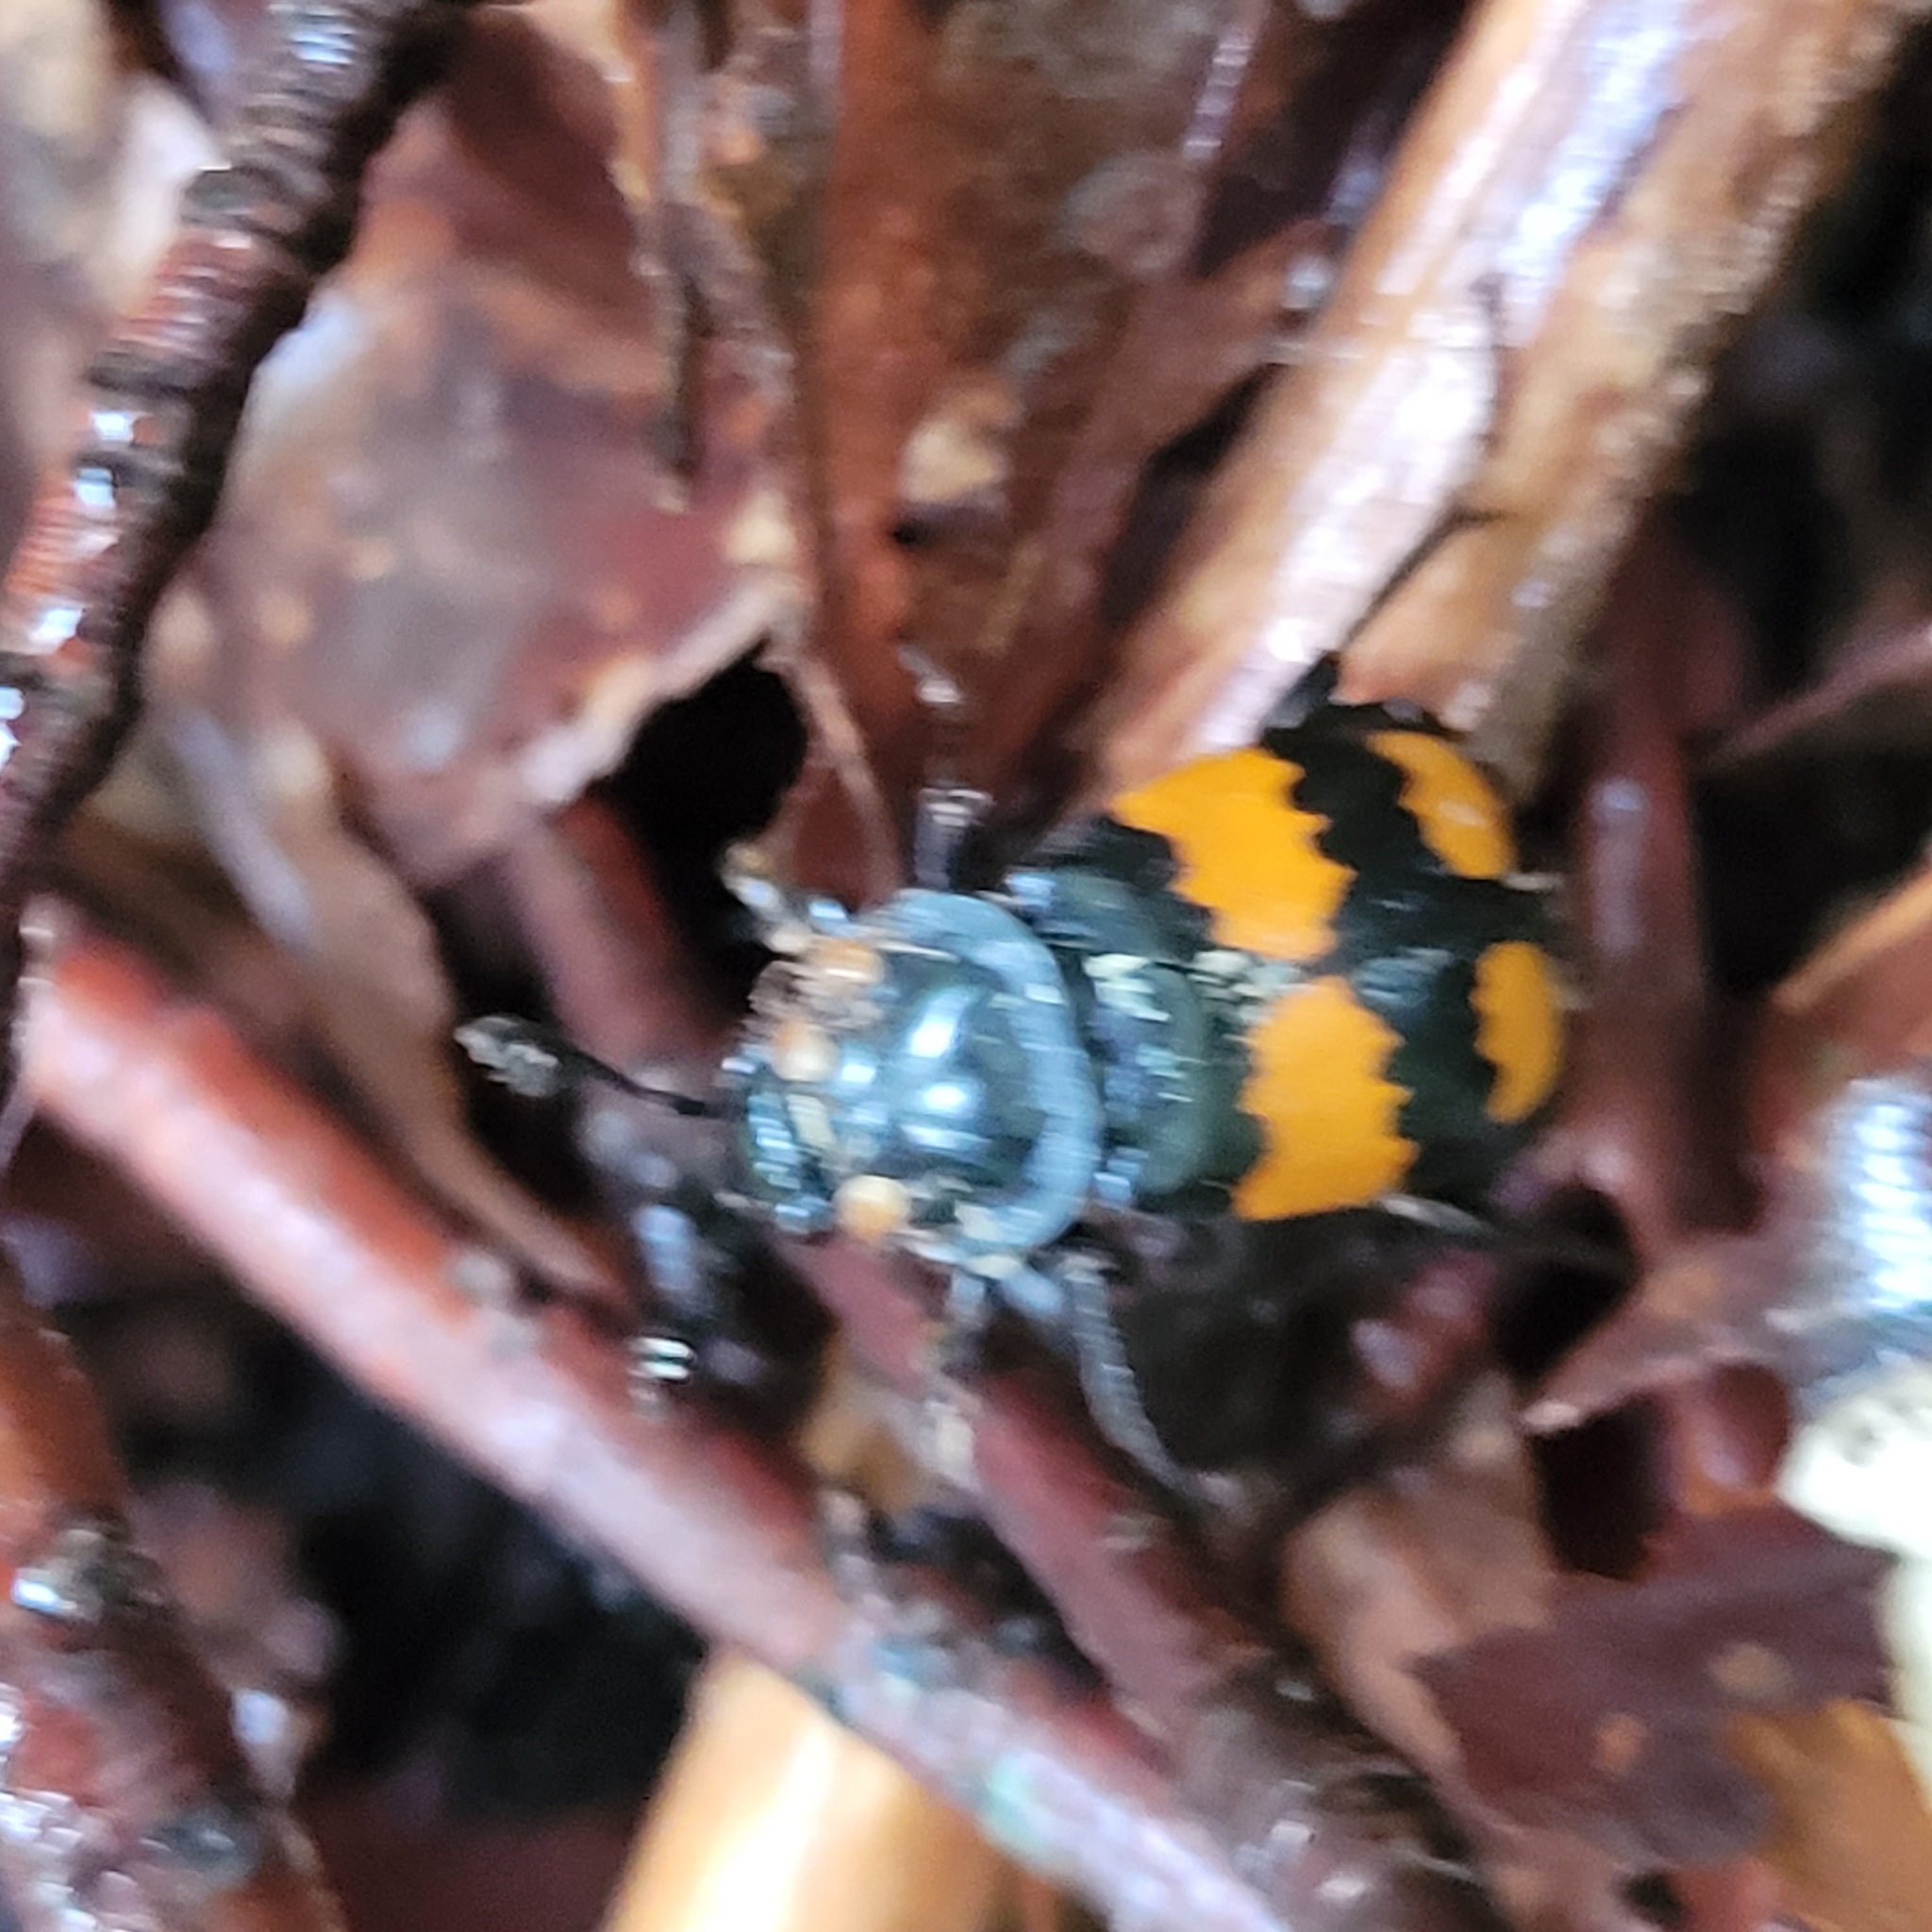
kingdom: Animalia
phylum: Arthropoda
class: Insecta
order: Coleoptera
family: Staphylinidae
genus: Nicrophorus
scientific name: Nicrophorus vespilloides
